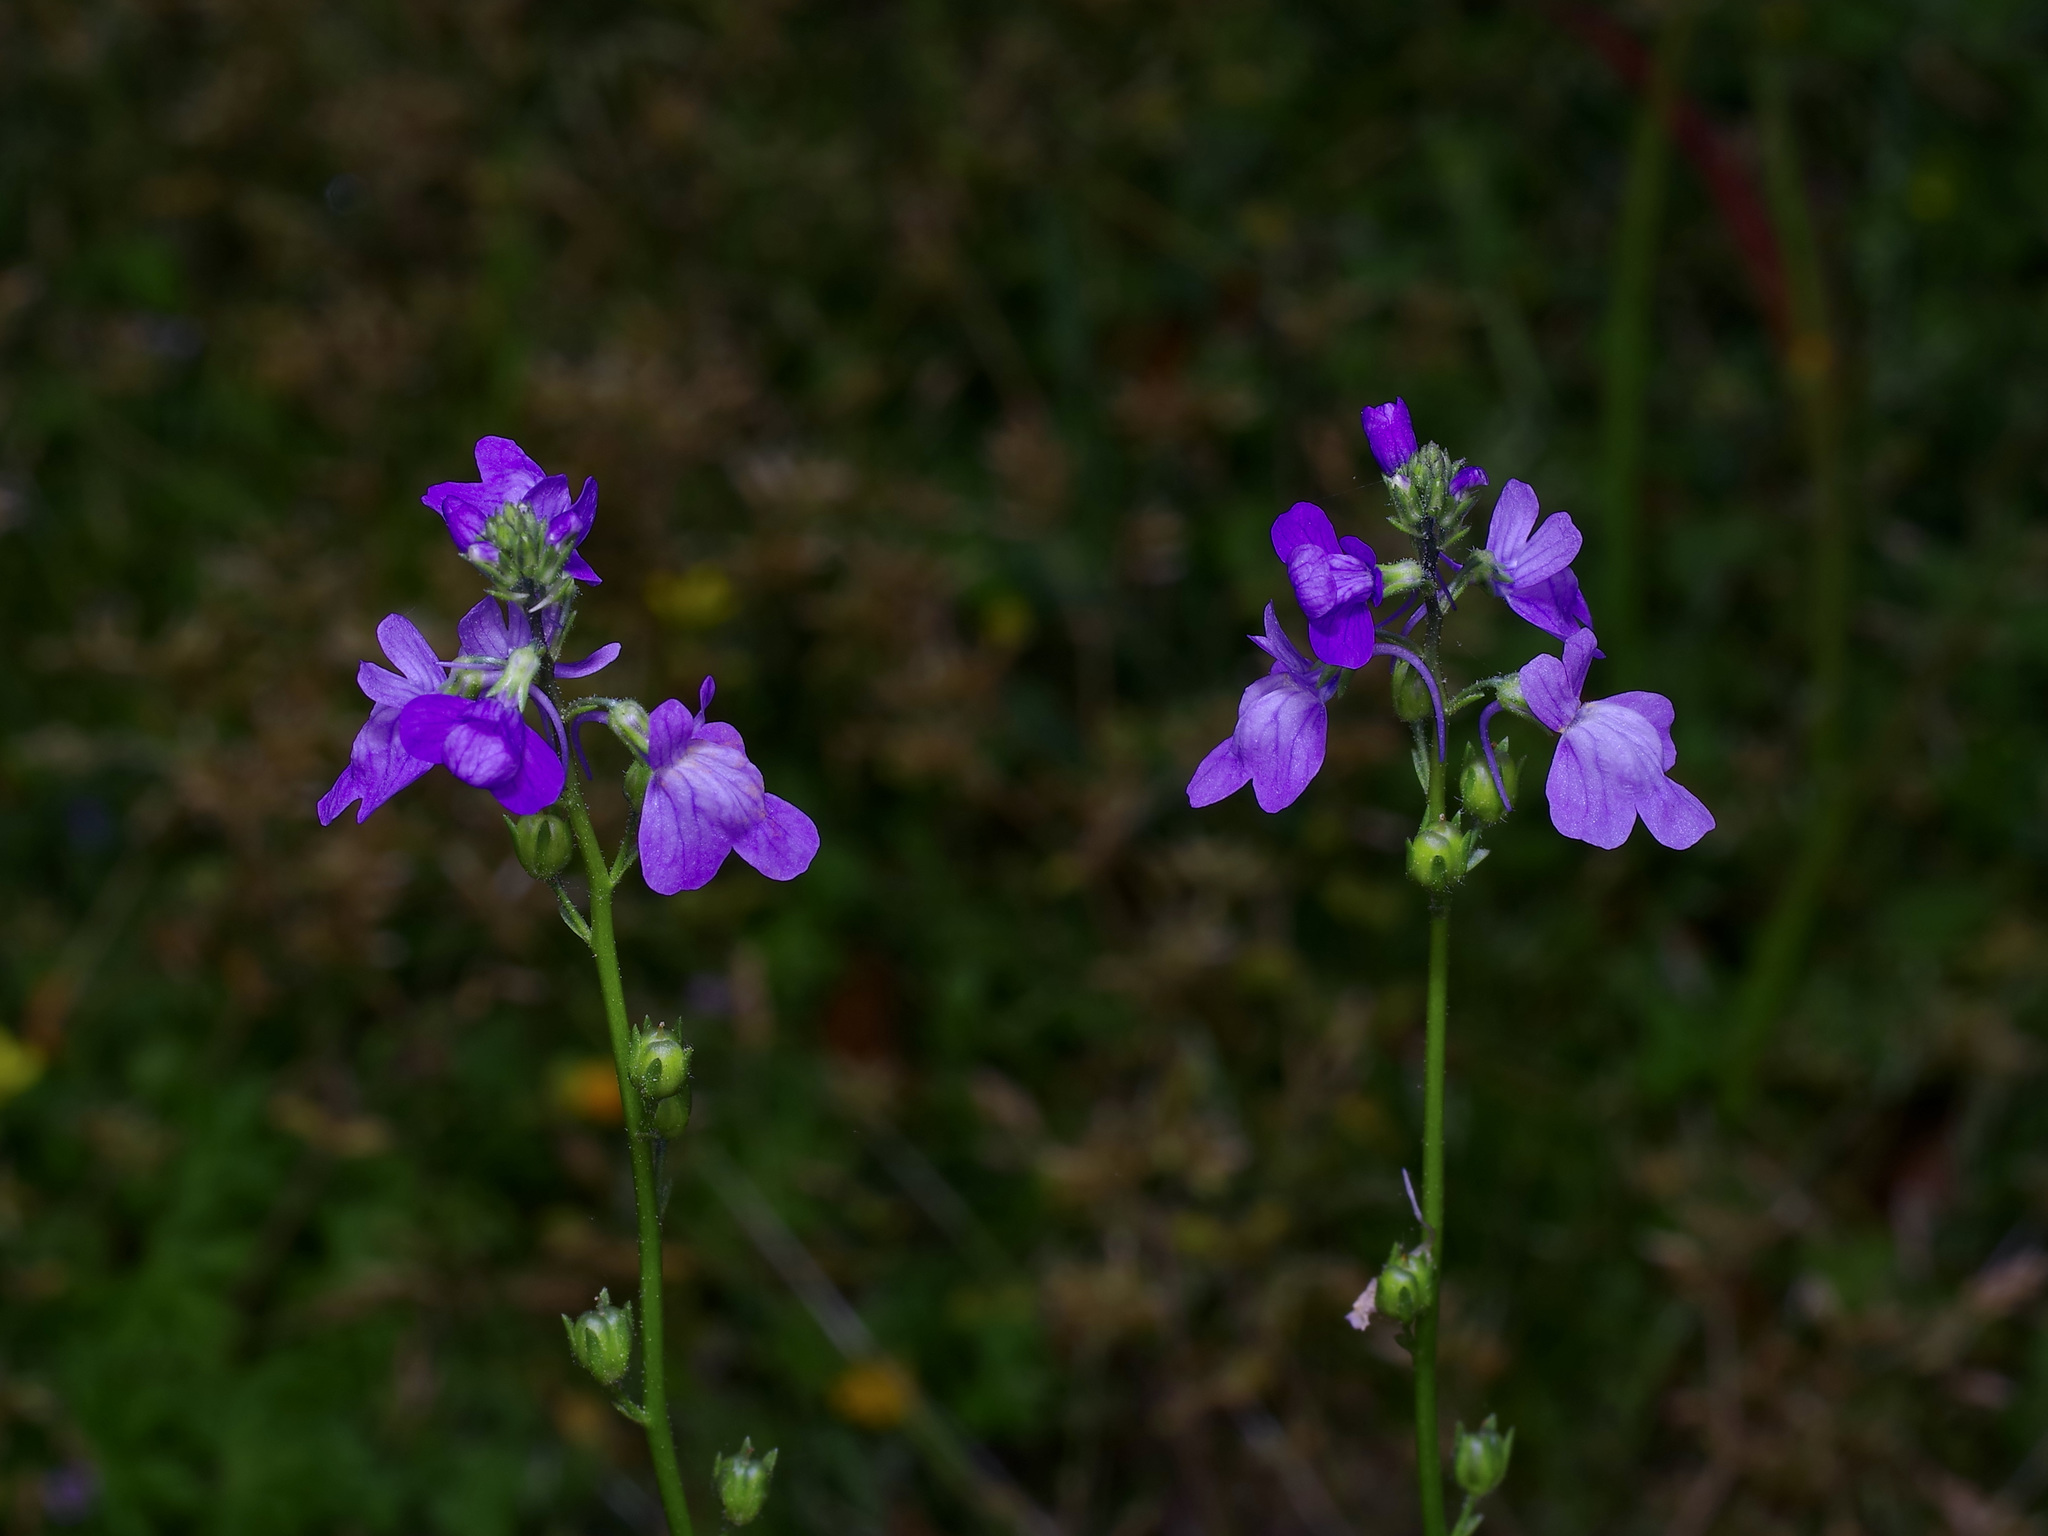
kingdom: Plantae
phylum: Tracheophyta
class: Magnoliopsida
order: Lamiales
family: Plantaginaceae
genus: Nuttallanthus
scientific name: Nuttallanthus texanus
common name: Texas toadflax
